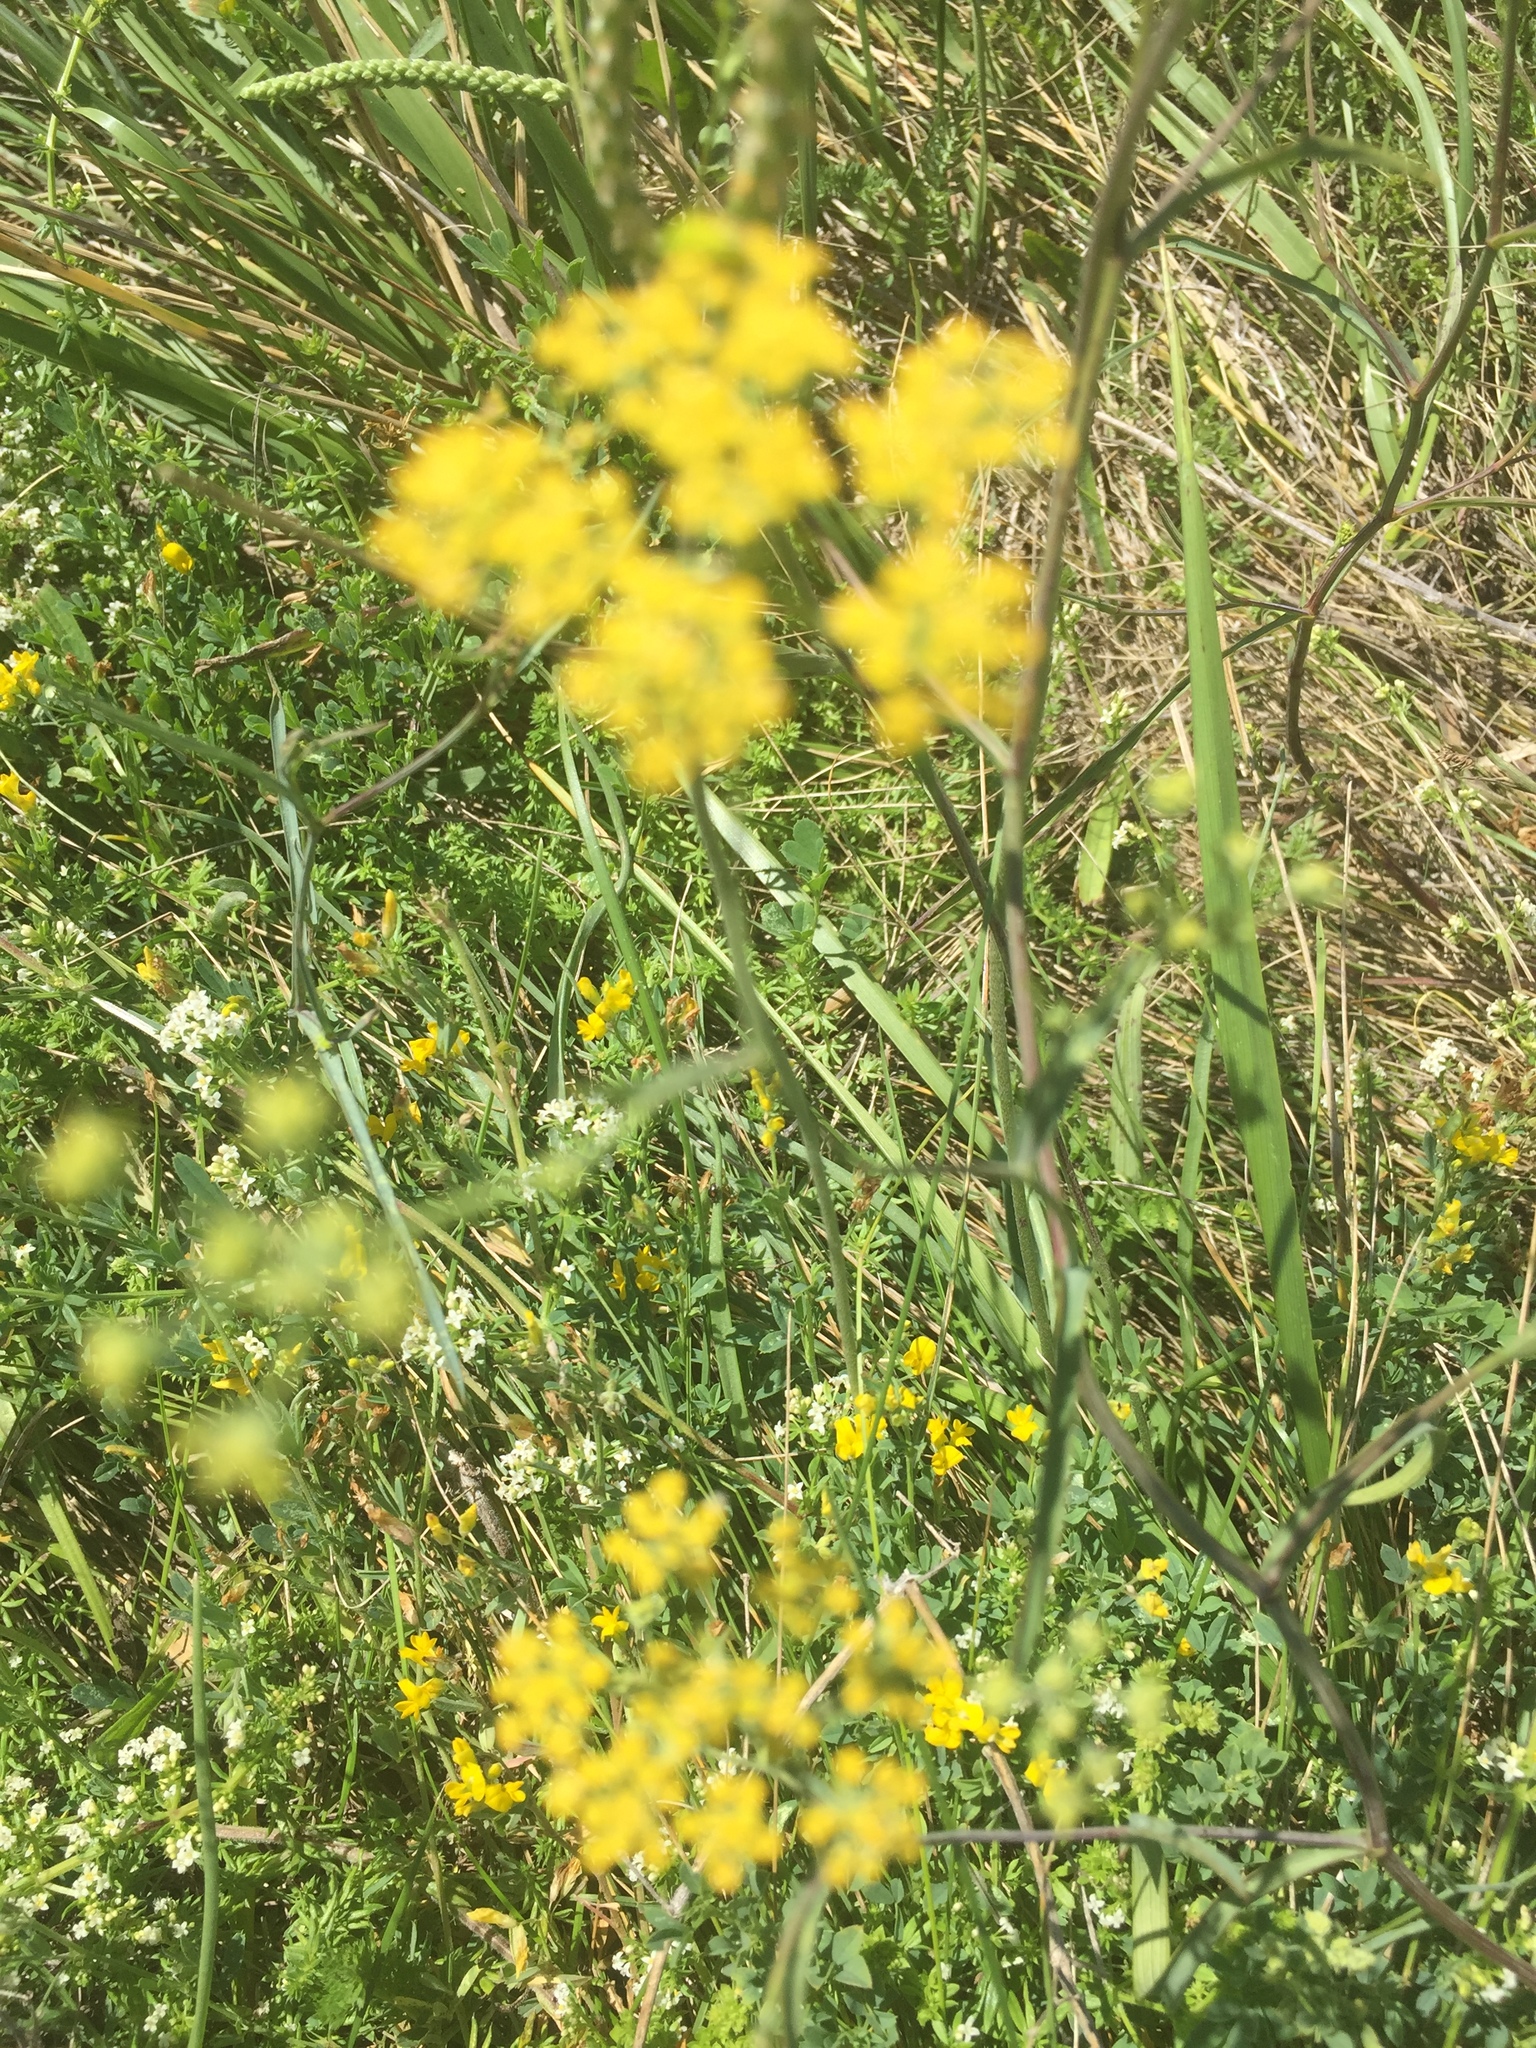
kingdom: Plantae
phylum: Tracheophyta
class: Magnoliopsida
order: Apiales
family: Apiaceae
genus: Bupleurum
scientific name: Bupleurum falcatum
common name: Sickle-leaved hare's-ear
